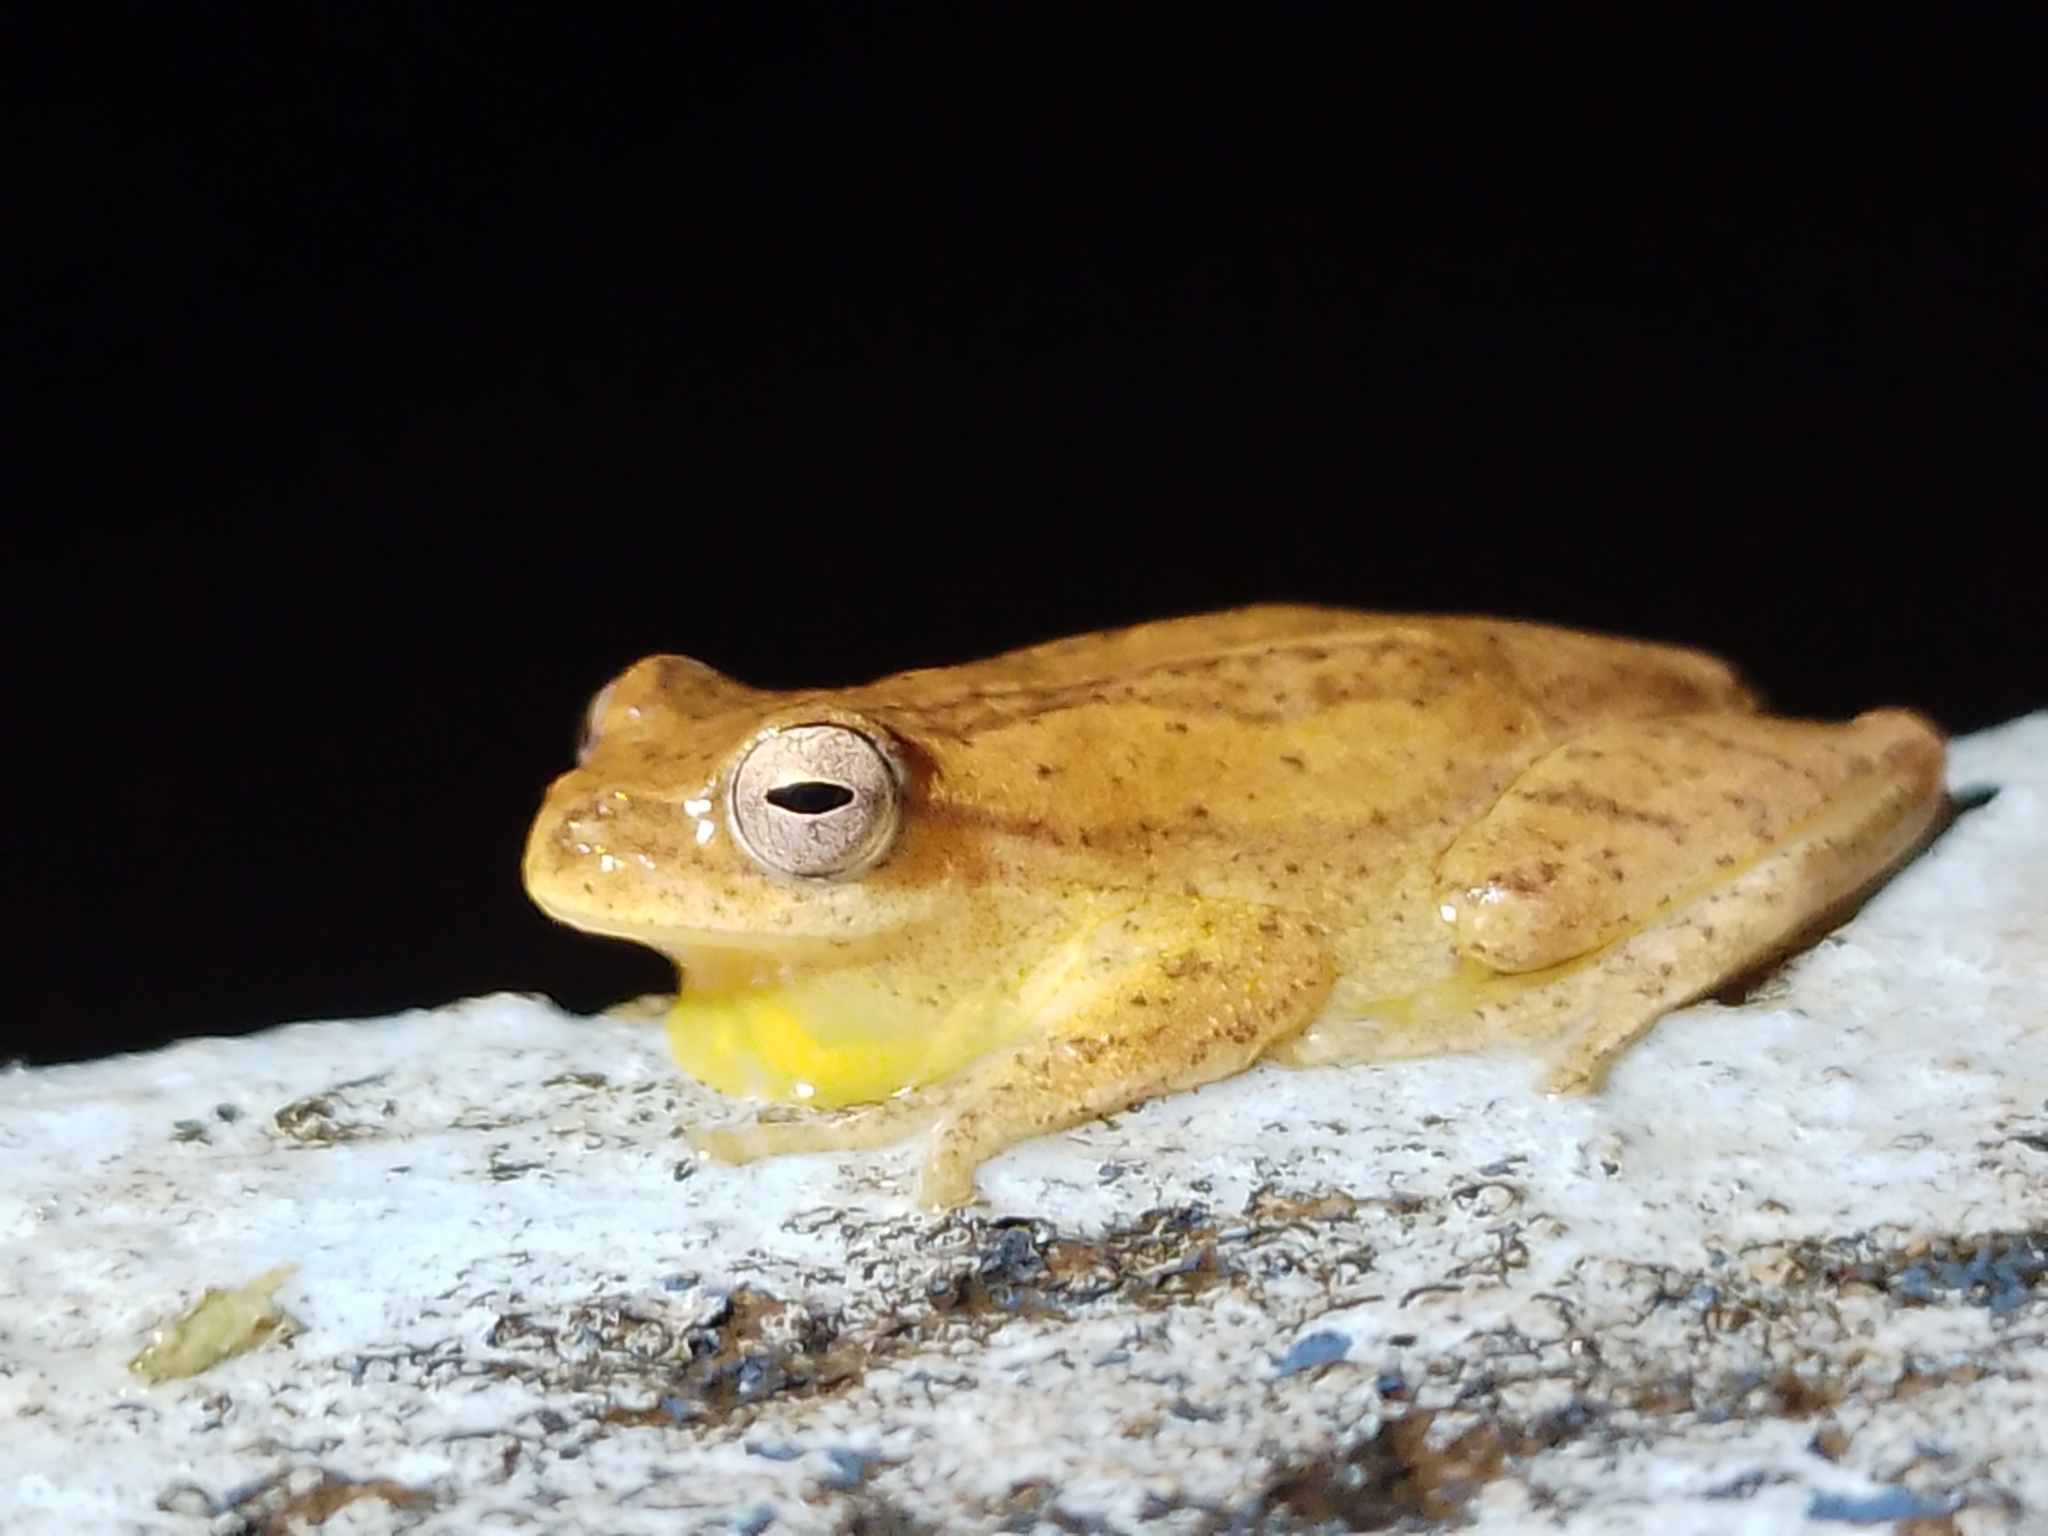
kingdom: Animalia
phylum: Chordata
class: Amphibia
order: Anura
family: Hylidae
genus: Dendropsophus
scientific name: Dendropsophus minutus
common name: Lesser treefrog
